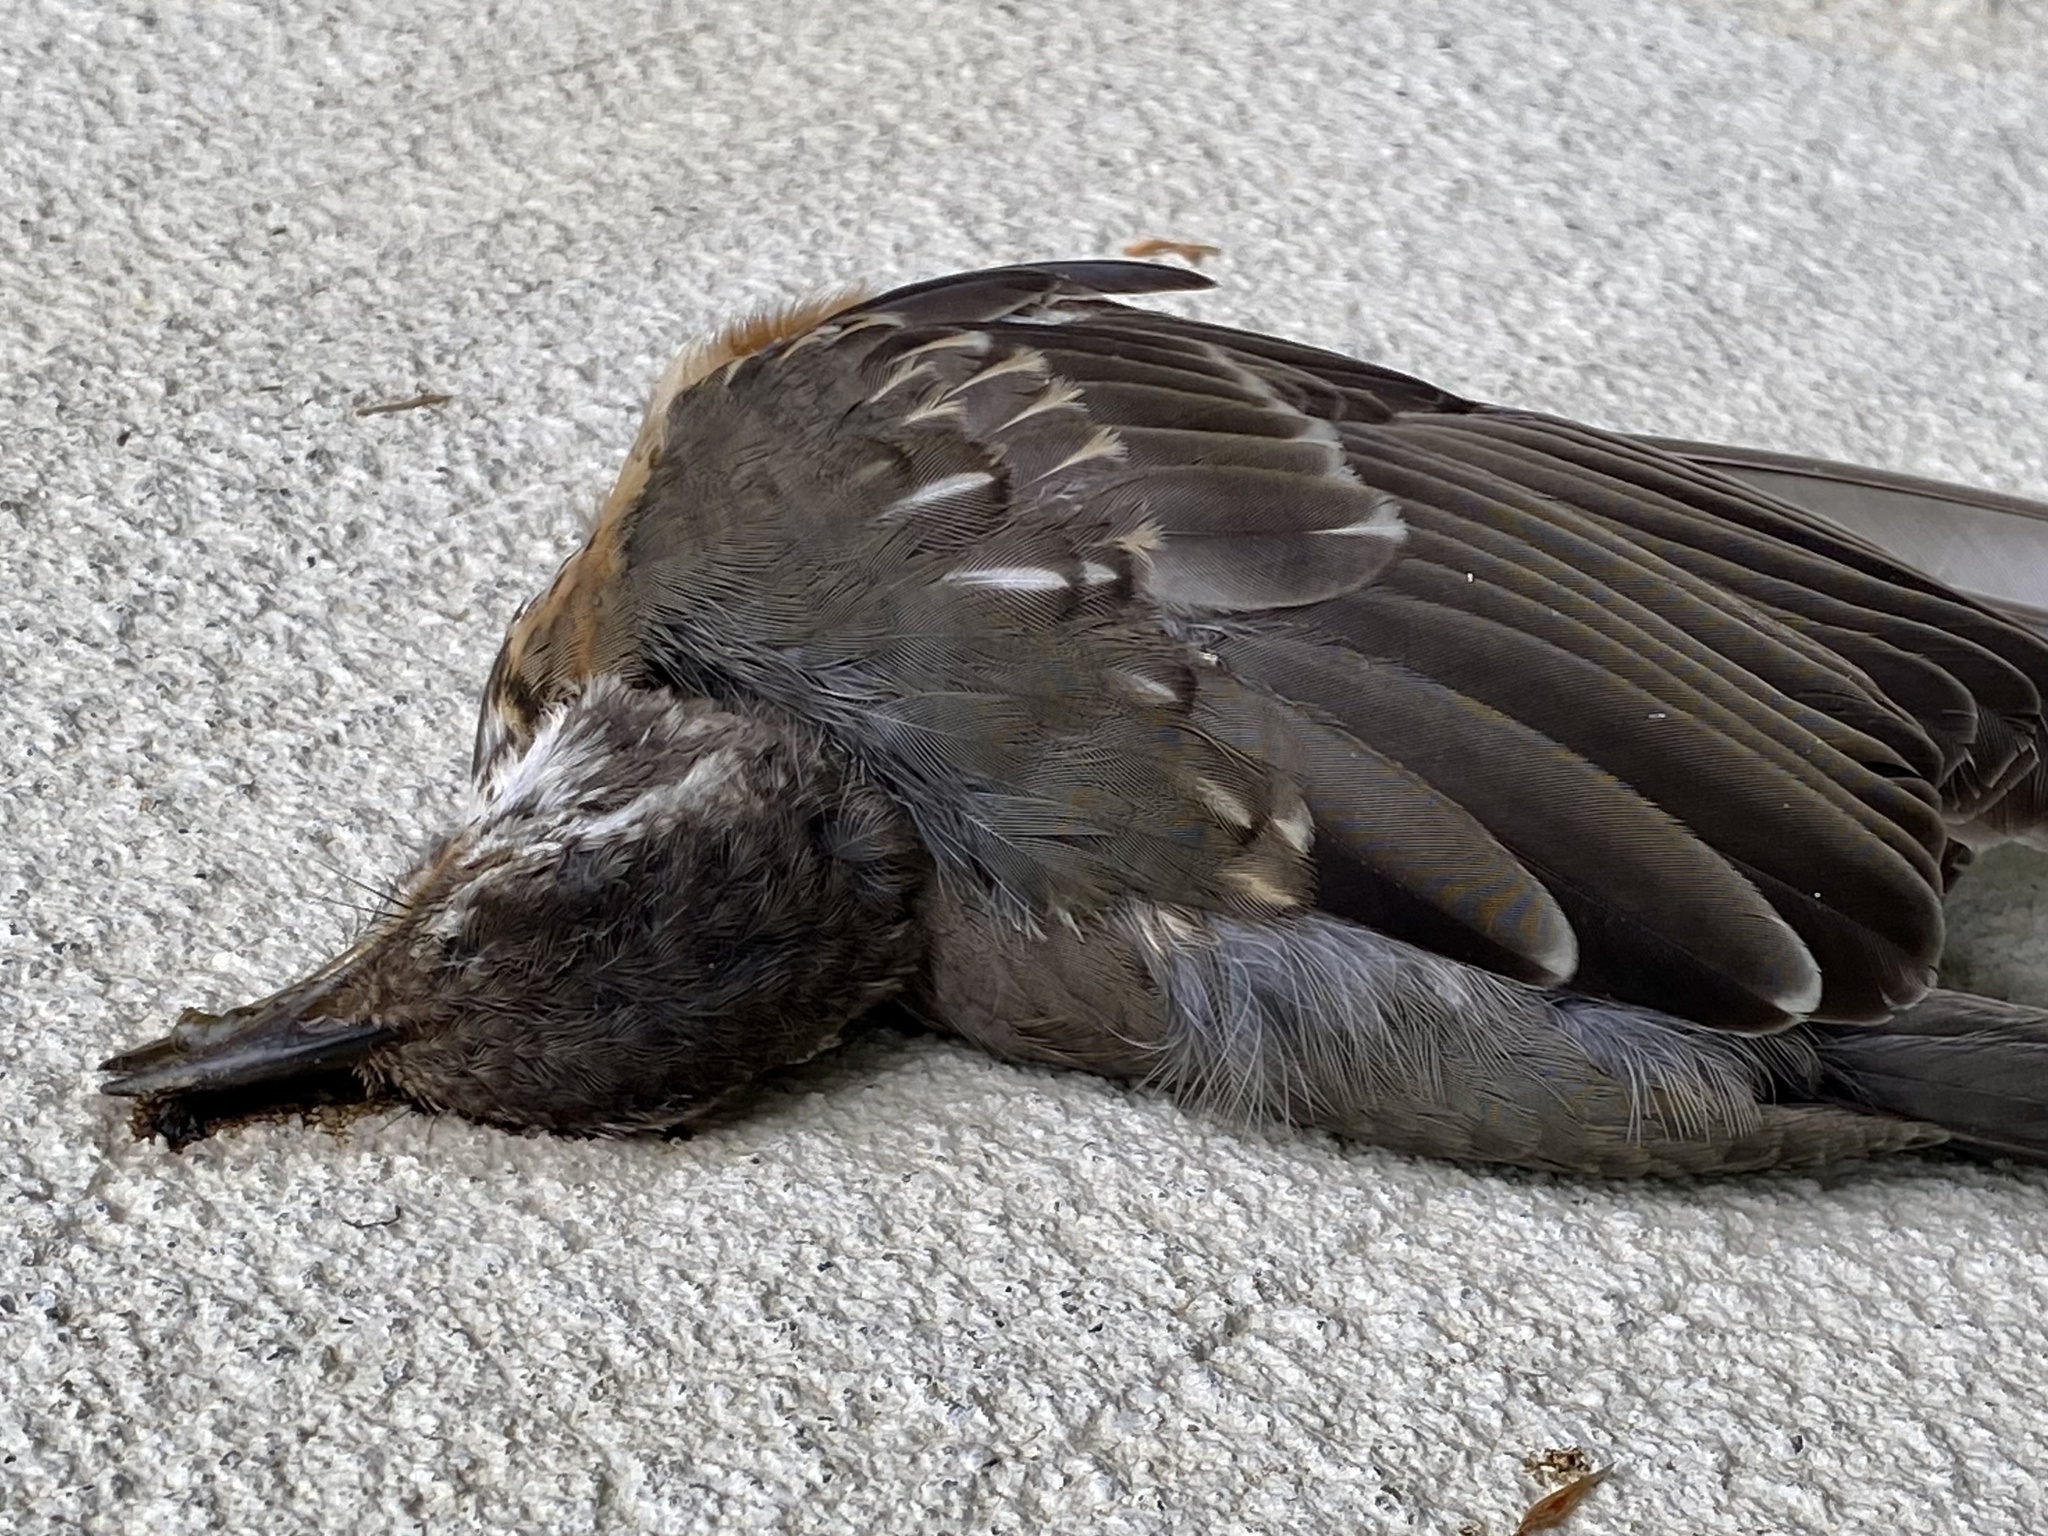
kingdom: Animalia
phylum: Chordata
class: Aves
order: Passeriformes
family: Turdidae
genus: Turdus
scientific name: Turdus migratorius
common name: American robin
